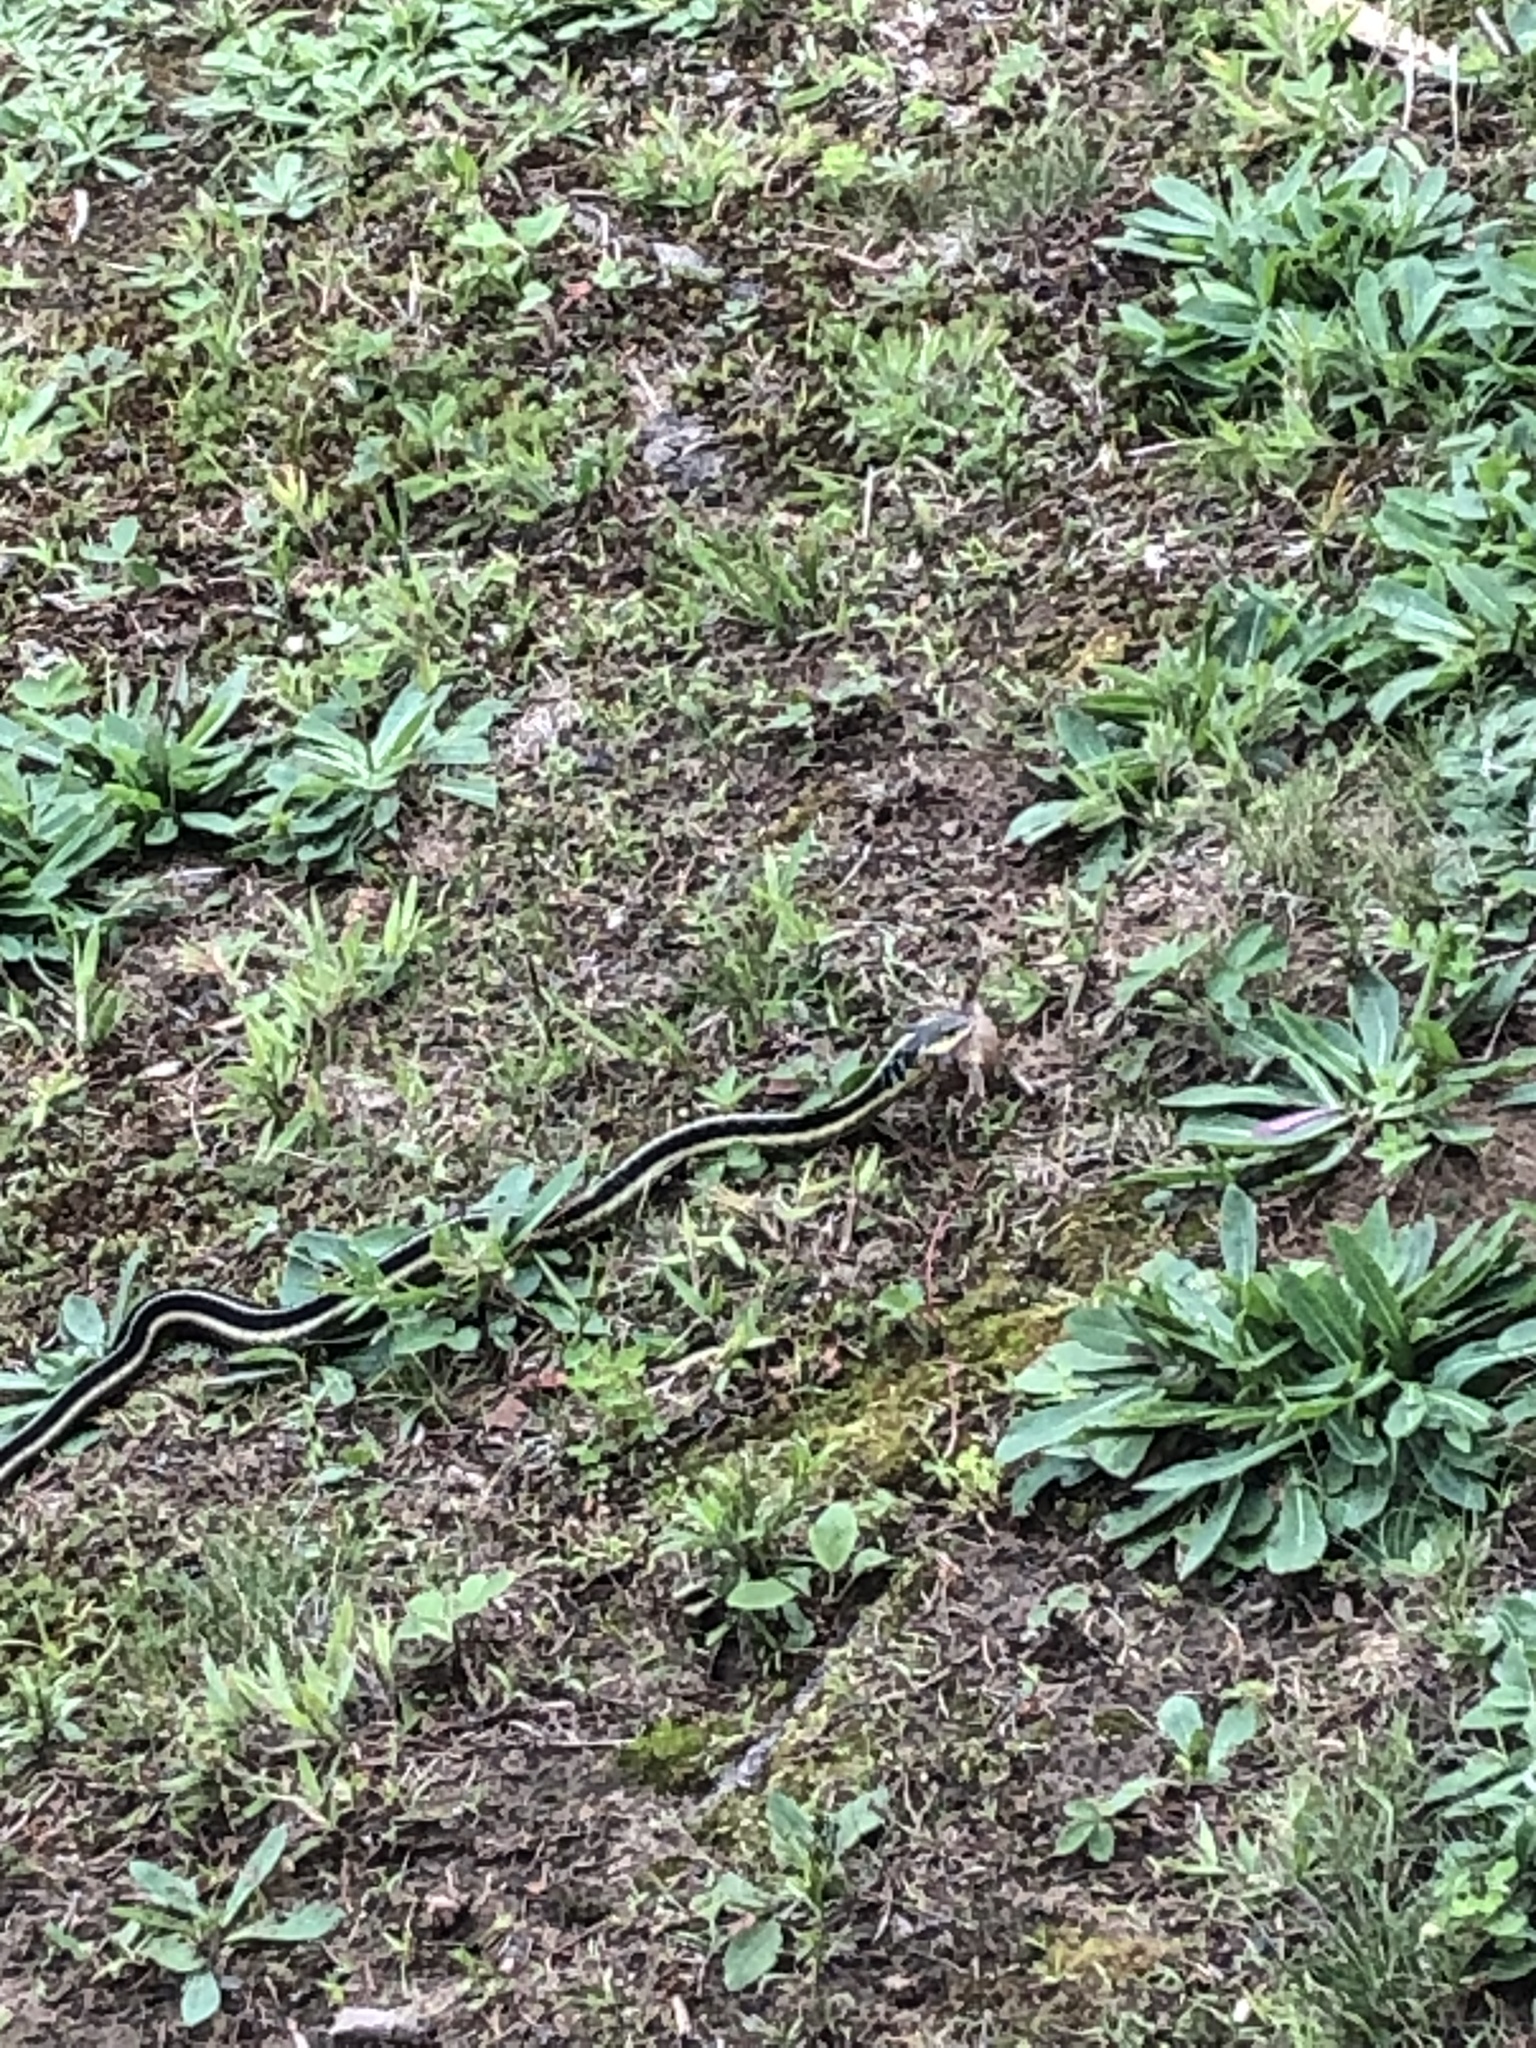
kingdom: Animalia
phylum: Chordata
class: Squamata
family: Colubridae
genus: Thamnophis
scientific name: Thamnophis sirtalis
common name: Common garter snake
